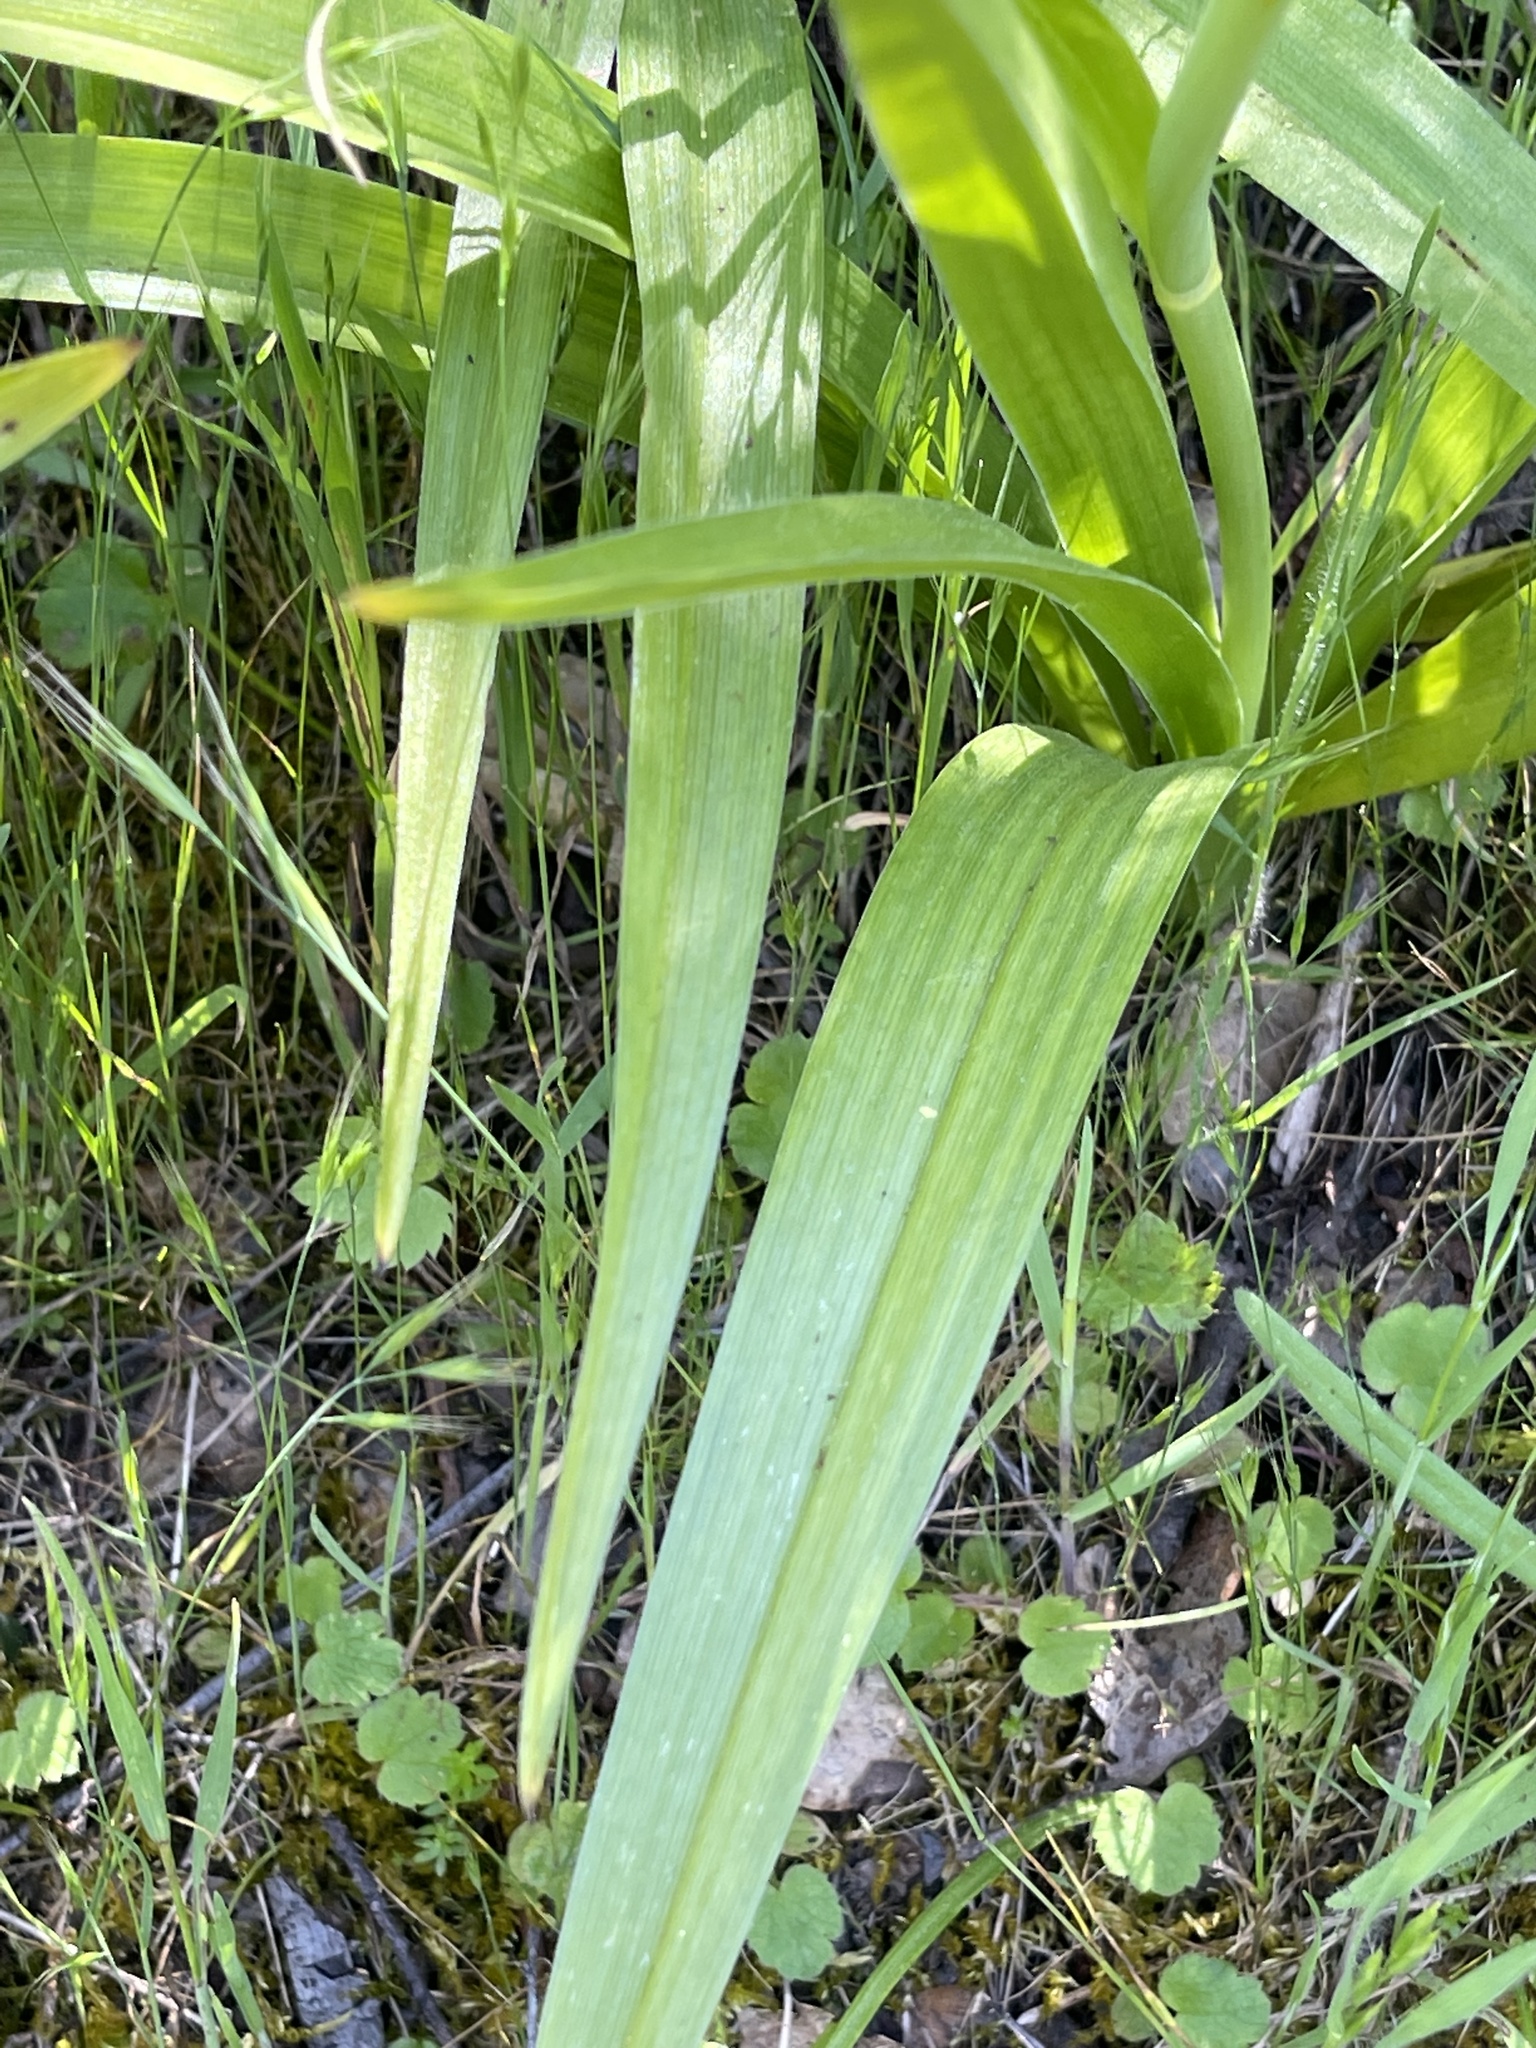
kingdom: Plantae
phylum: Tracheophyta
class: Liliopsida
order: Liliales
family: Melanthiaceae
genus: Toxicoscordion
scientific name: Toxicoscordion fremontii
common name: Fremont's death camas
